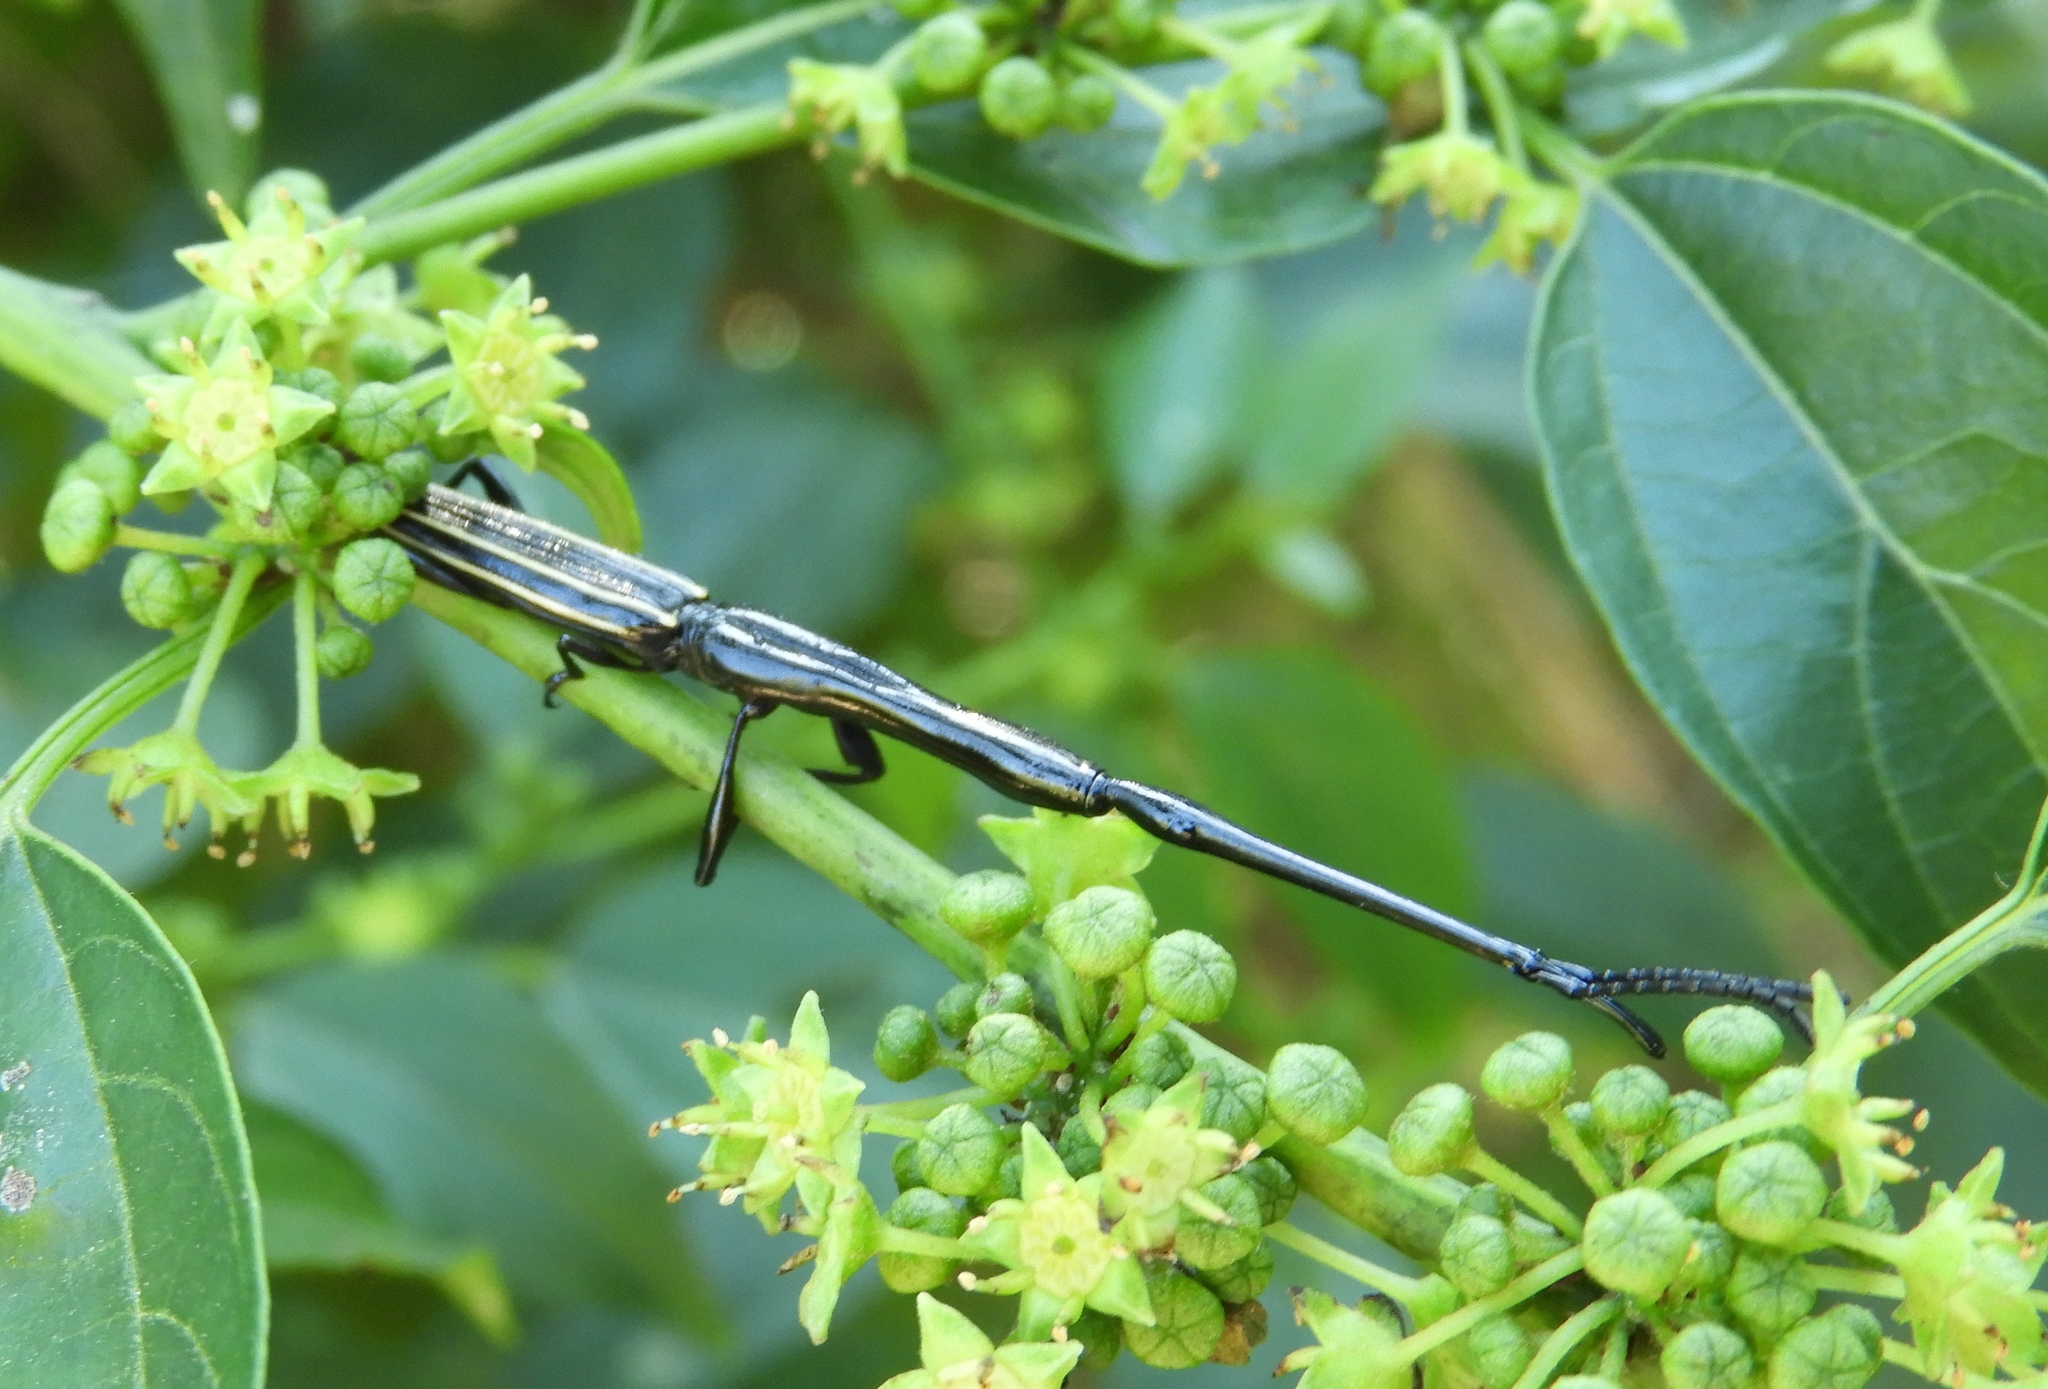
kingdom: Animalia
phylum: Arthropoda
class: Insecta
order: Coleoptera
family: Brentidae
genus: Brentus
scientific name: Brentus anchorago
